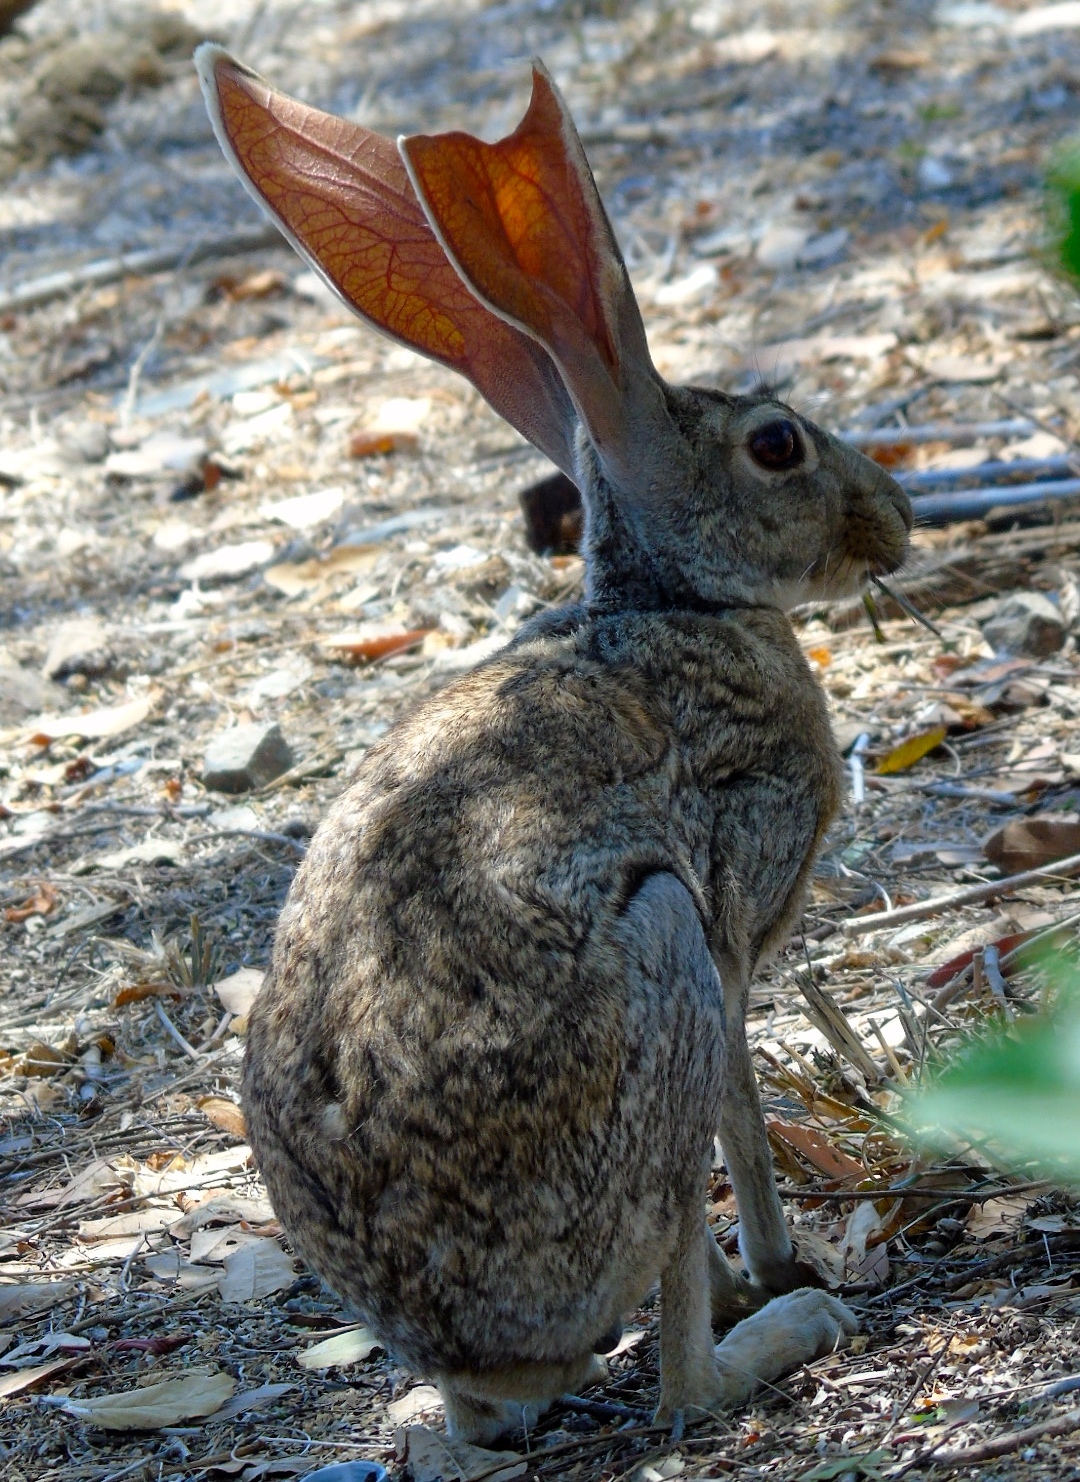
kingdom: Animalia
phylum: Chordata
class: Mammalia
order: Lagomorpha
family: Leporidae
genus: Lepus
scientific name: Lepus alleni
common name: Antelope jackrabbit
